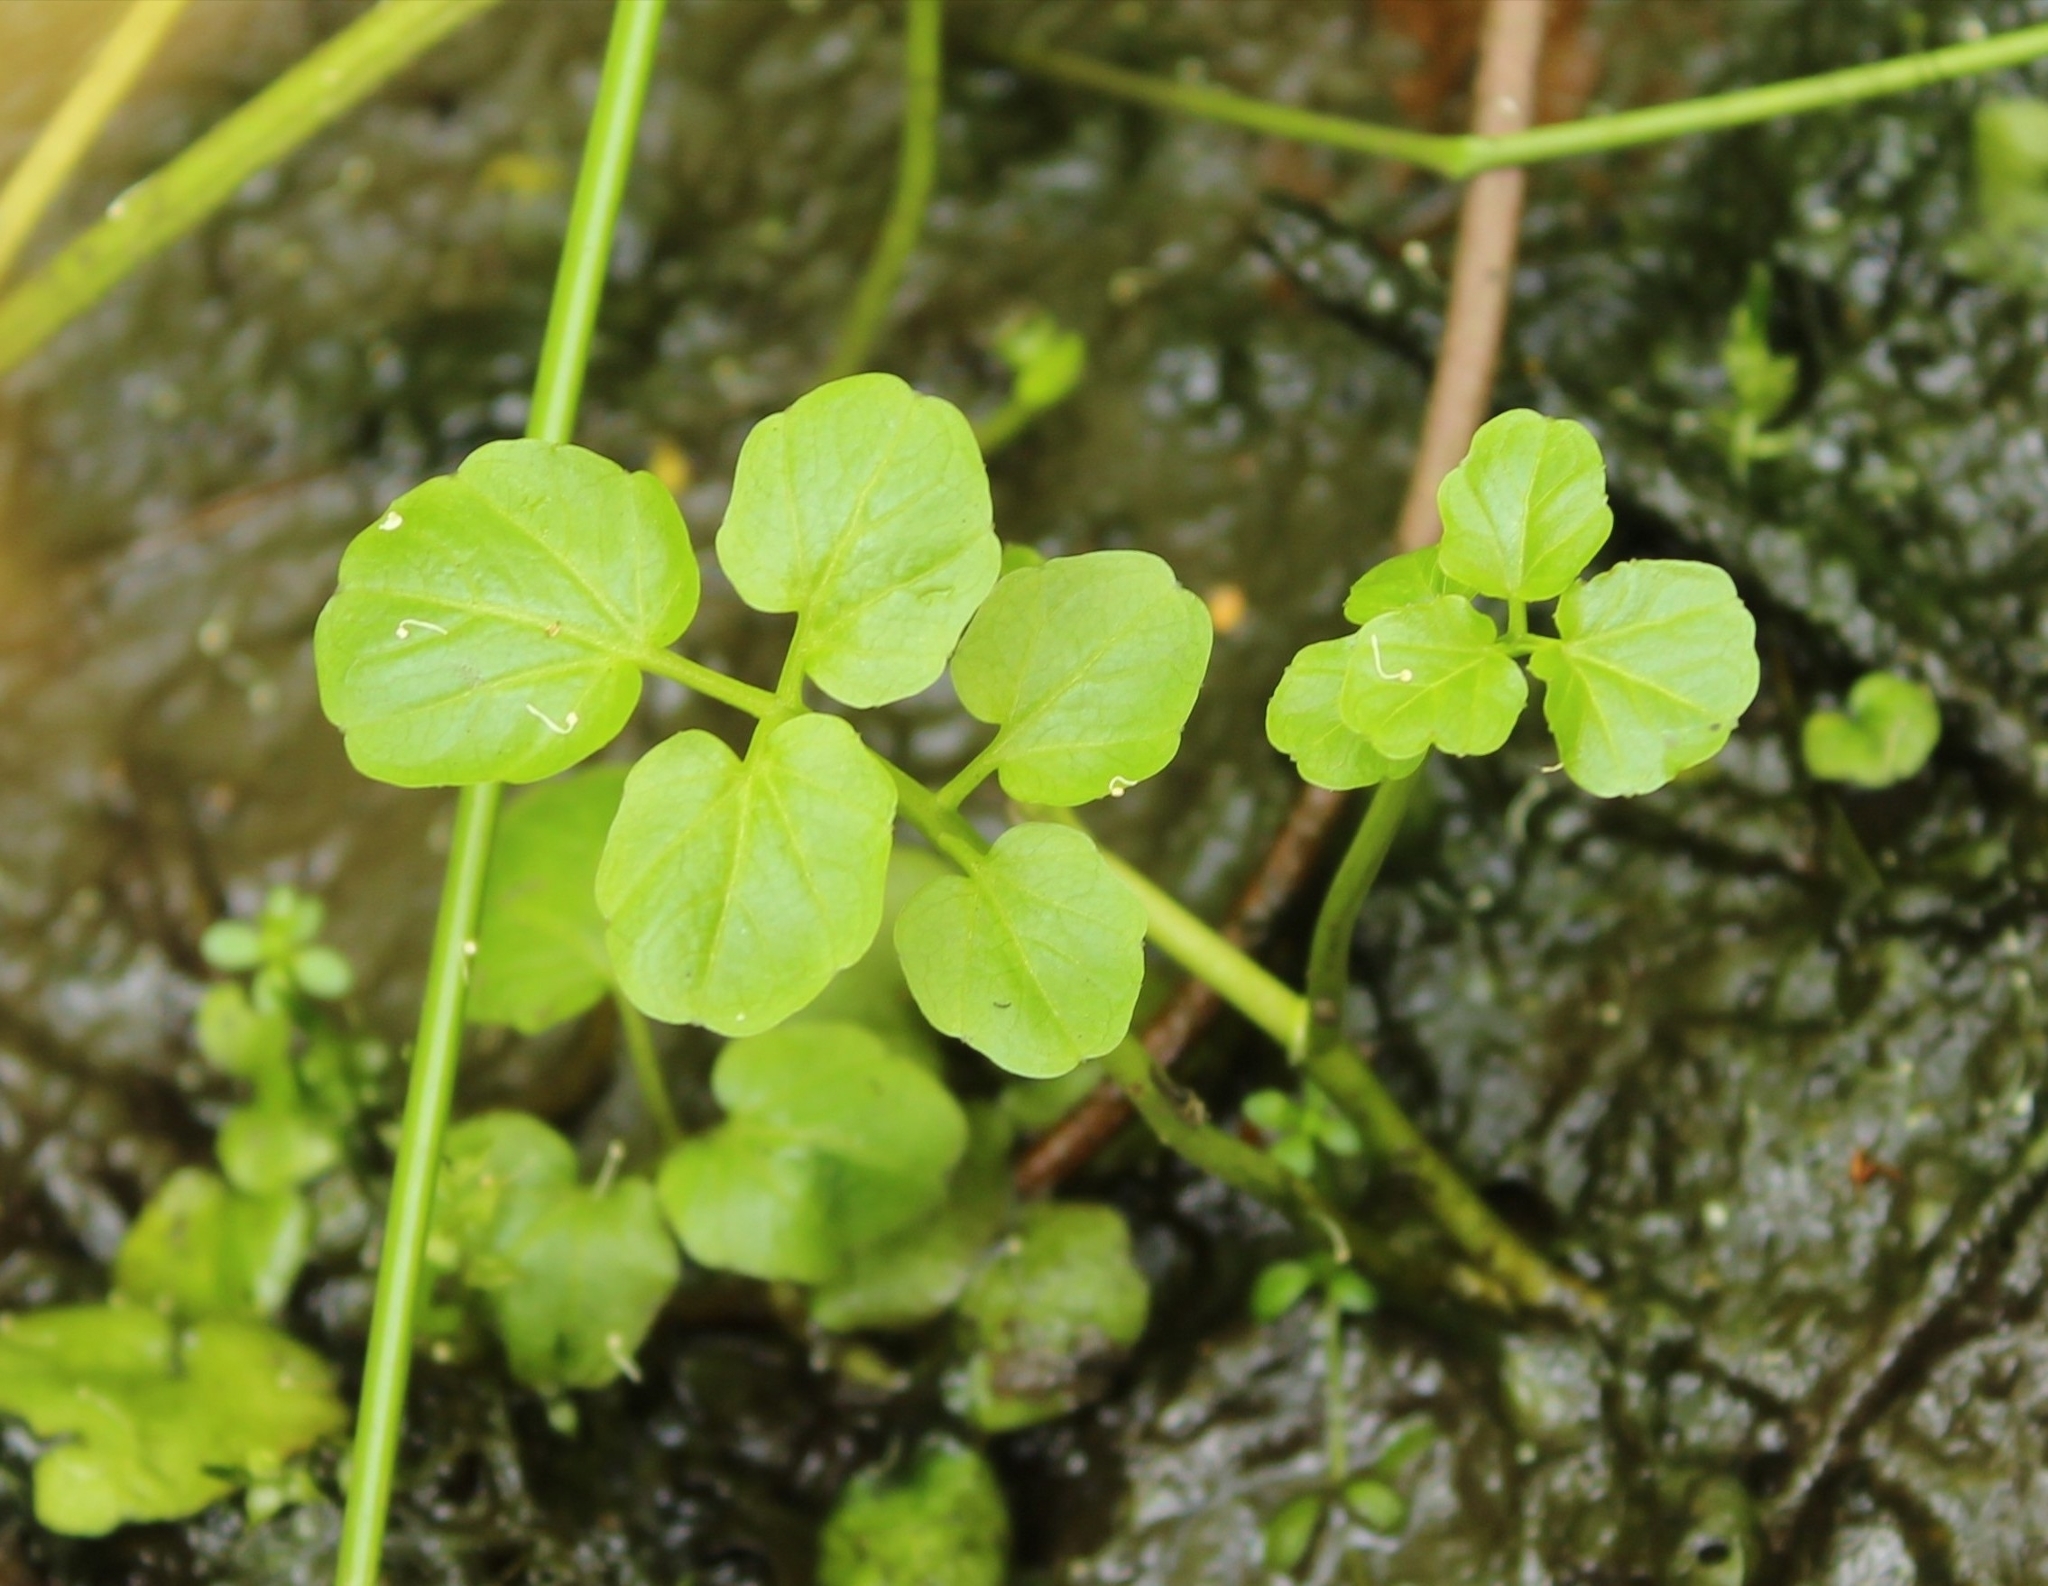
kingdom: Plantae
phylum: Tracheophyta
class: Magnoliopsida
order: Brassicales
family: Brassicaceae
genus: Cardamine
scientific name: Cardamine amara
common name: Large bitter-cress
